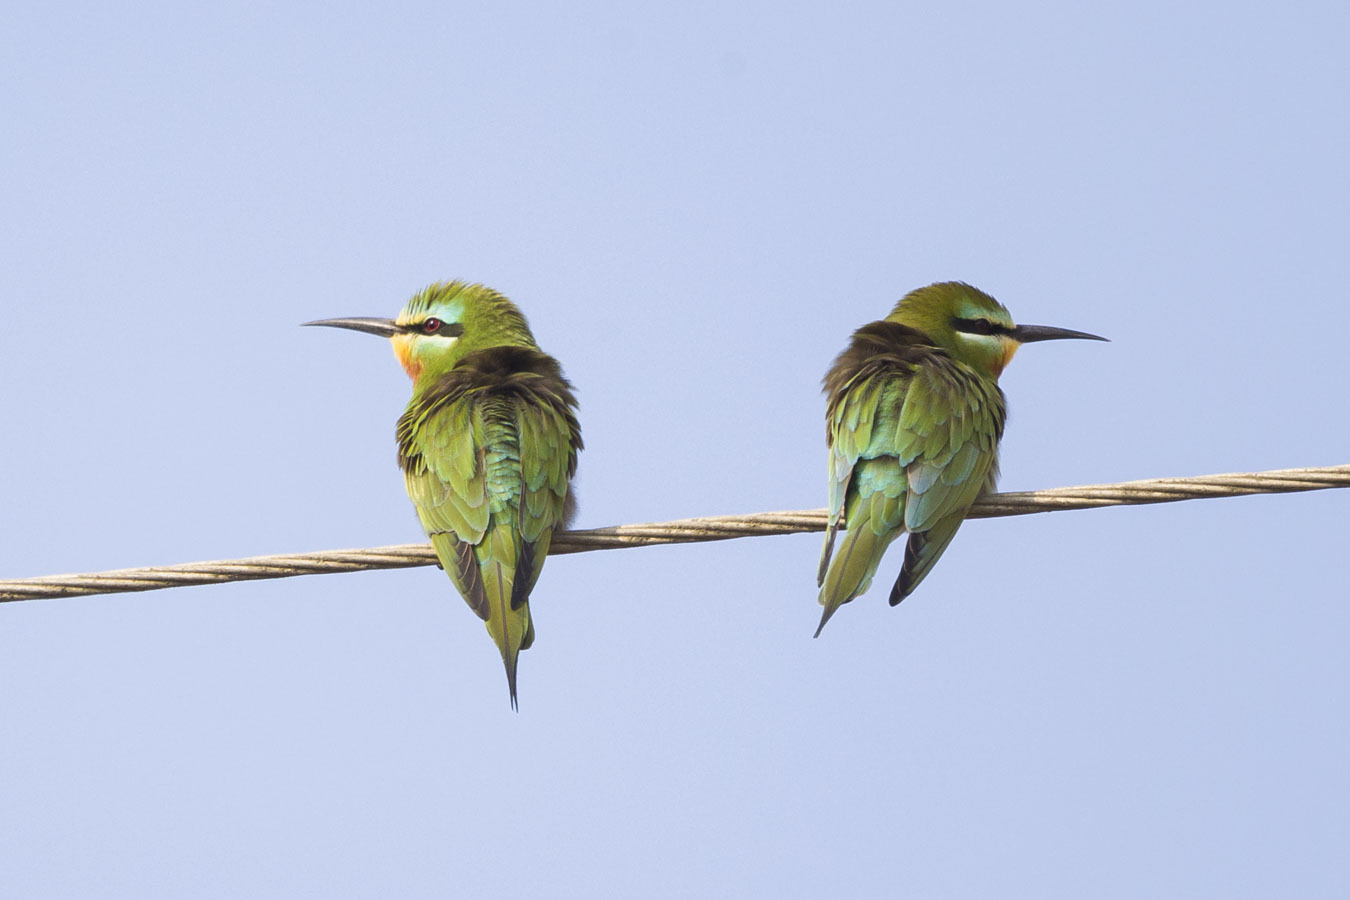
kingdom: Animalia
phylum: Chordata
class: Aves
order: Coraciiformes
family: Meropidae
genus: Merops
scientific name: Merops persicus
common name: Blue-cheeked bee-eater
